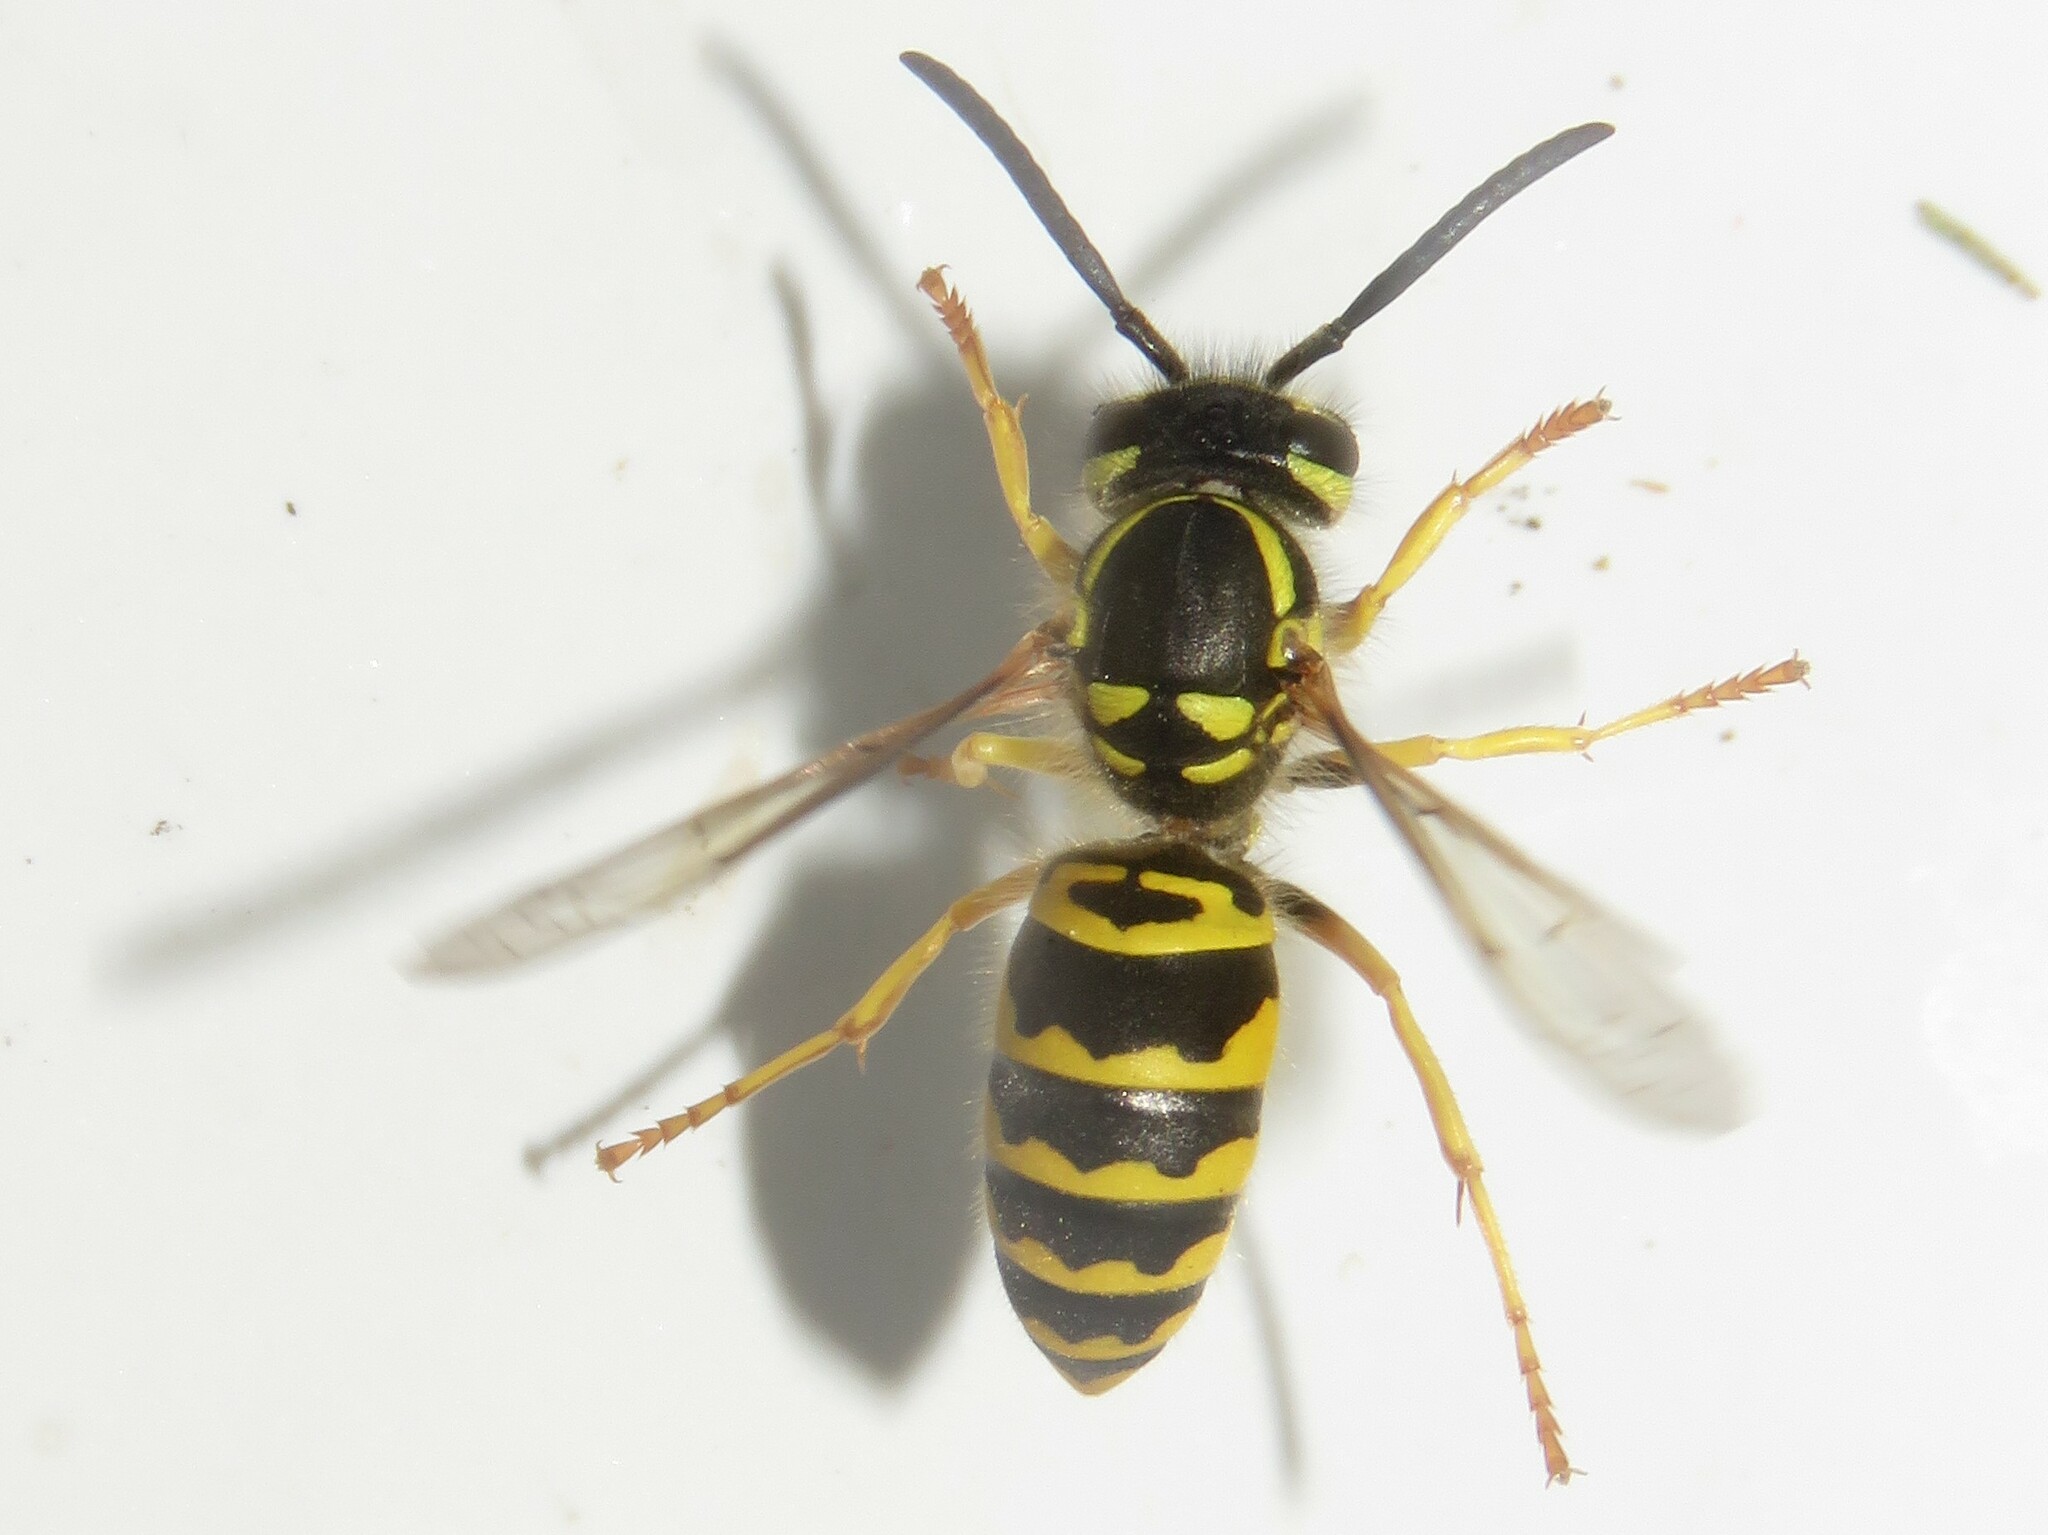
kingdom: Animalia
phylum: Arthropoda
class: Insecta
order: Hymenoptera
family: Vespidae
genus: Vespula
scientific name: Vespula maculifrons
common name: Eastern yellowjacket
